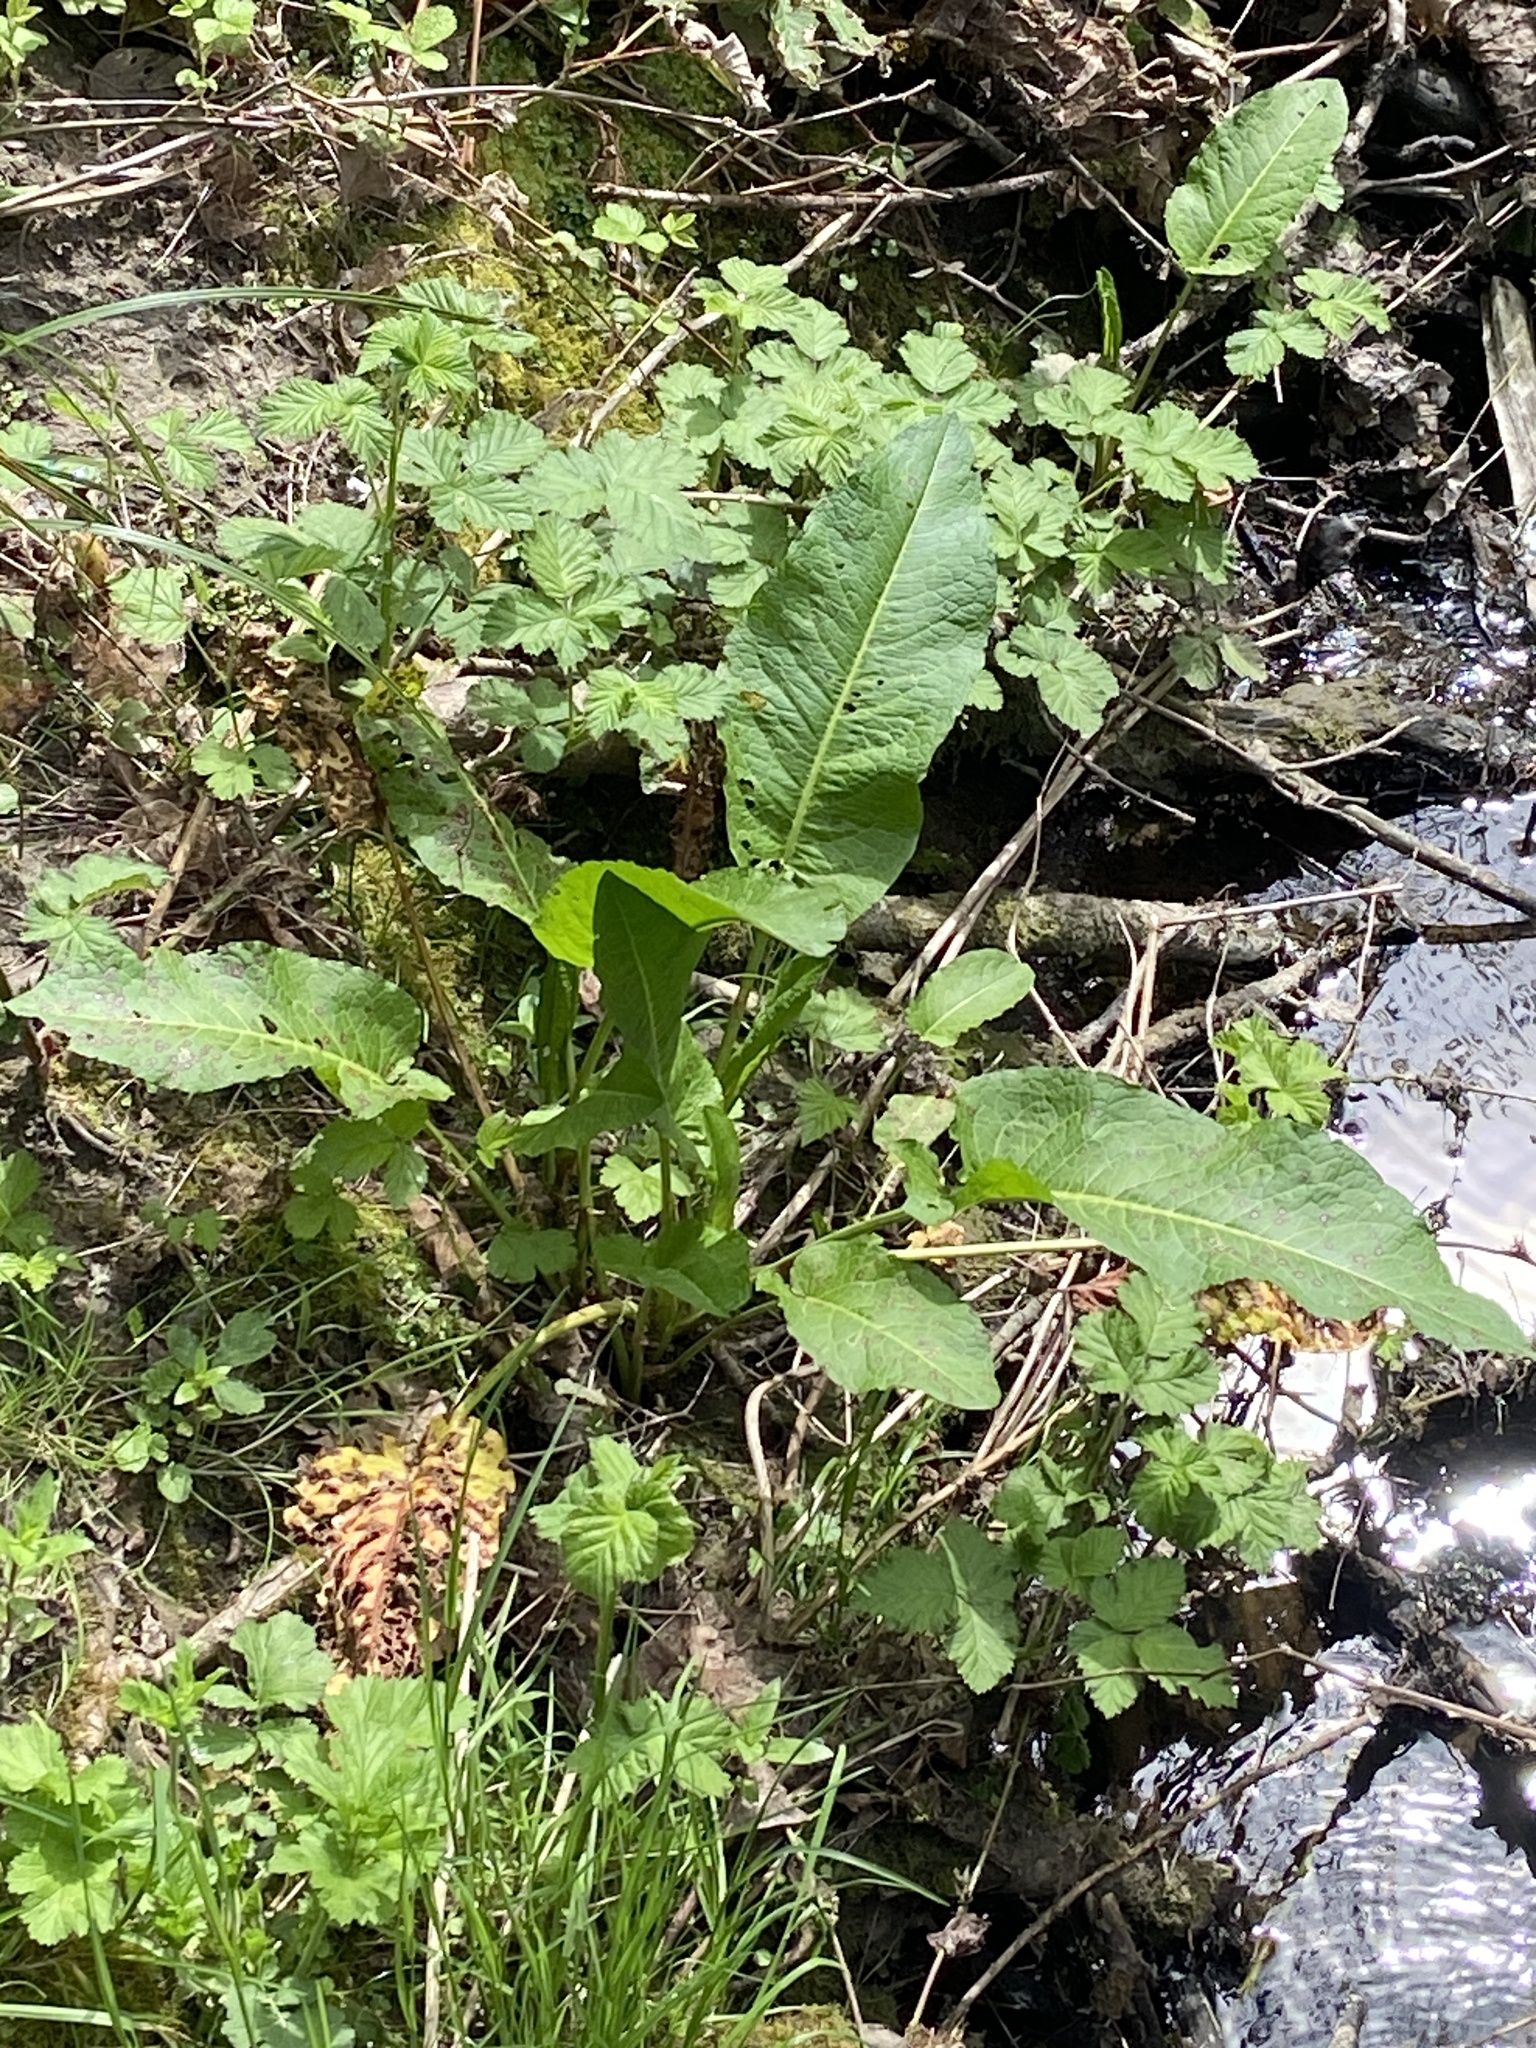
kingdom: Plantae
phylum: Tracheophyta
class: Magnoliopsida
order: Caryophyllales
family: Polygonaceae
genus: Rumex
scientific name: Rumex obtusifolius
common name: Bitter dock
